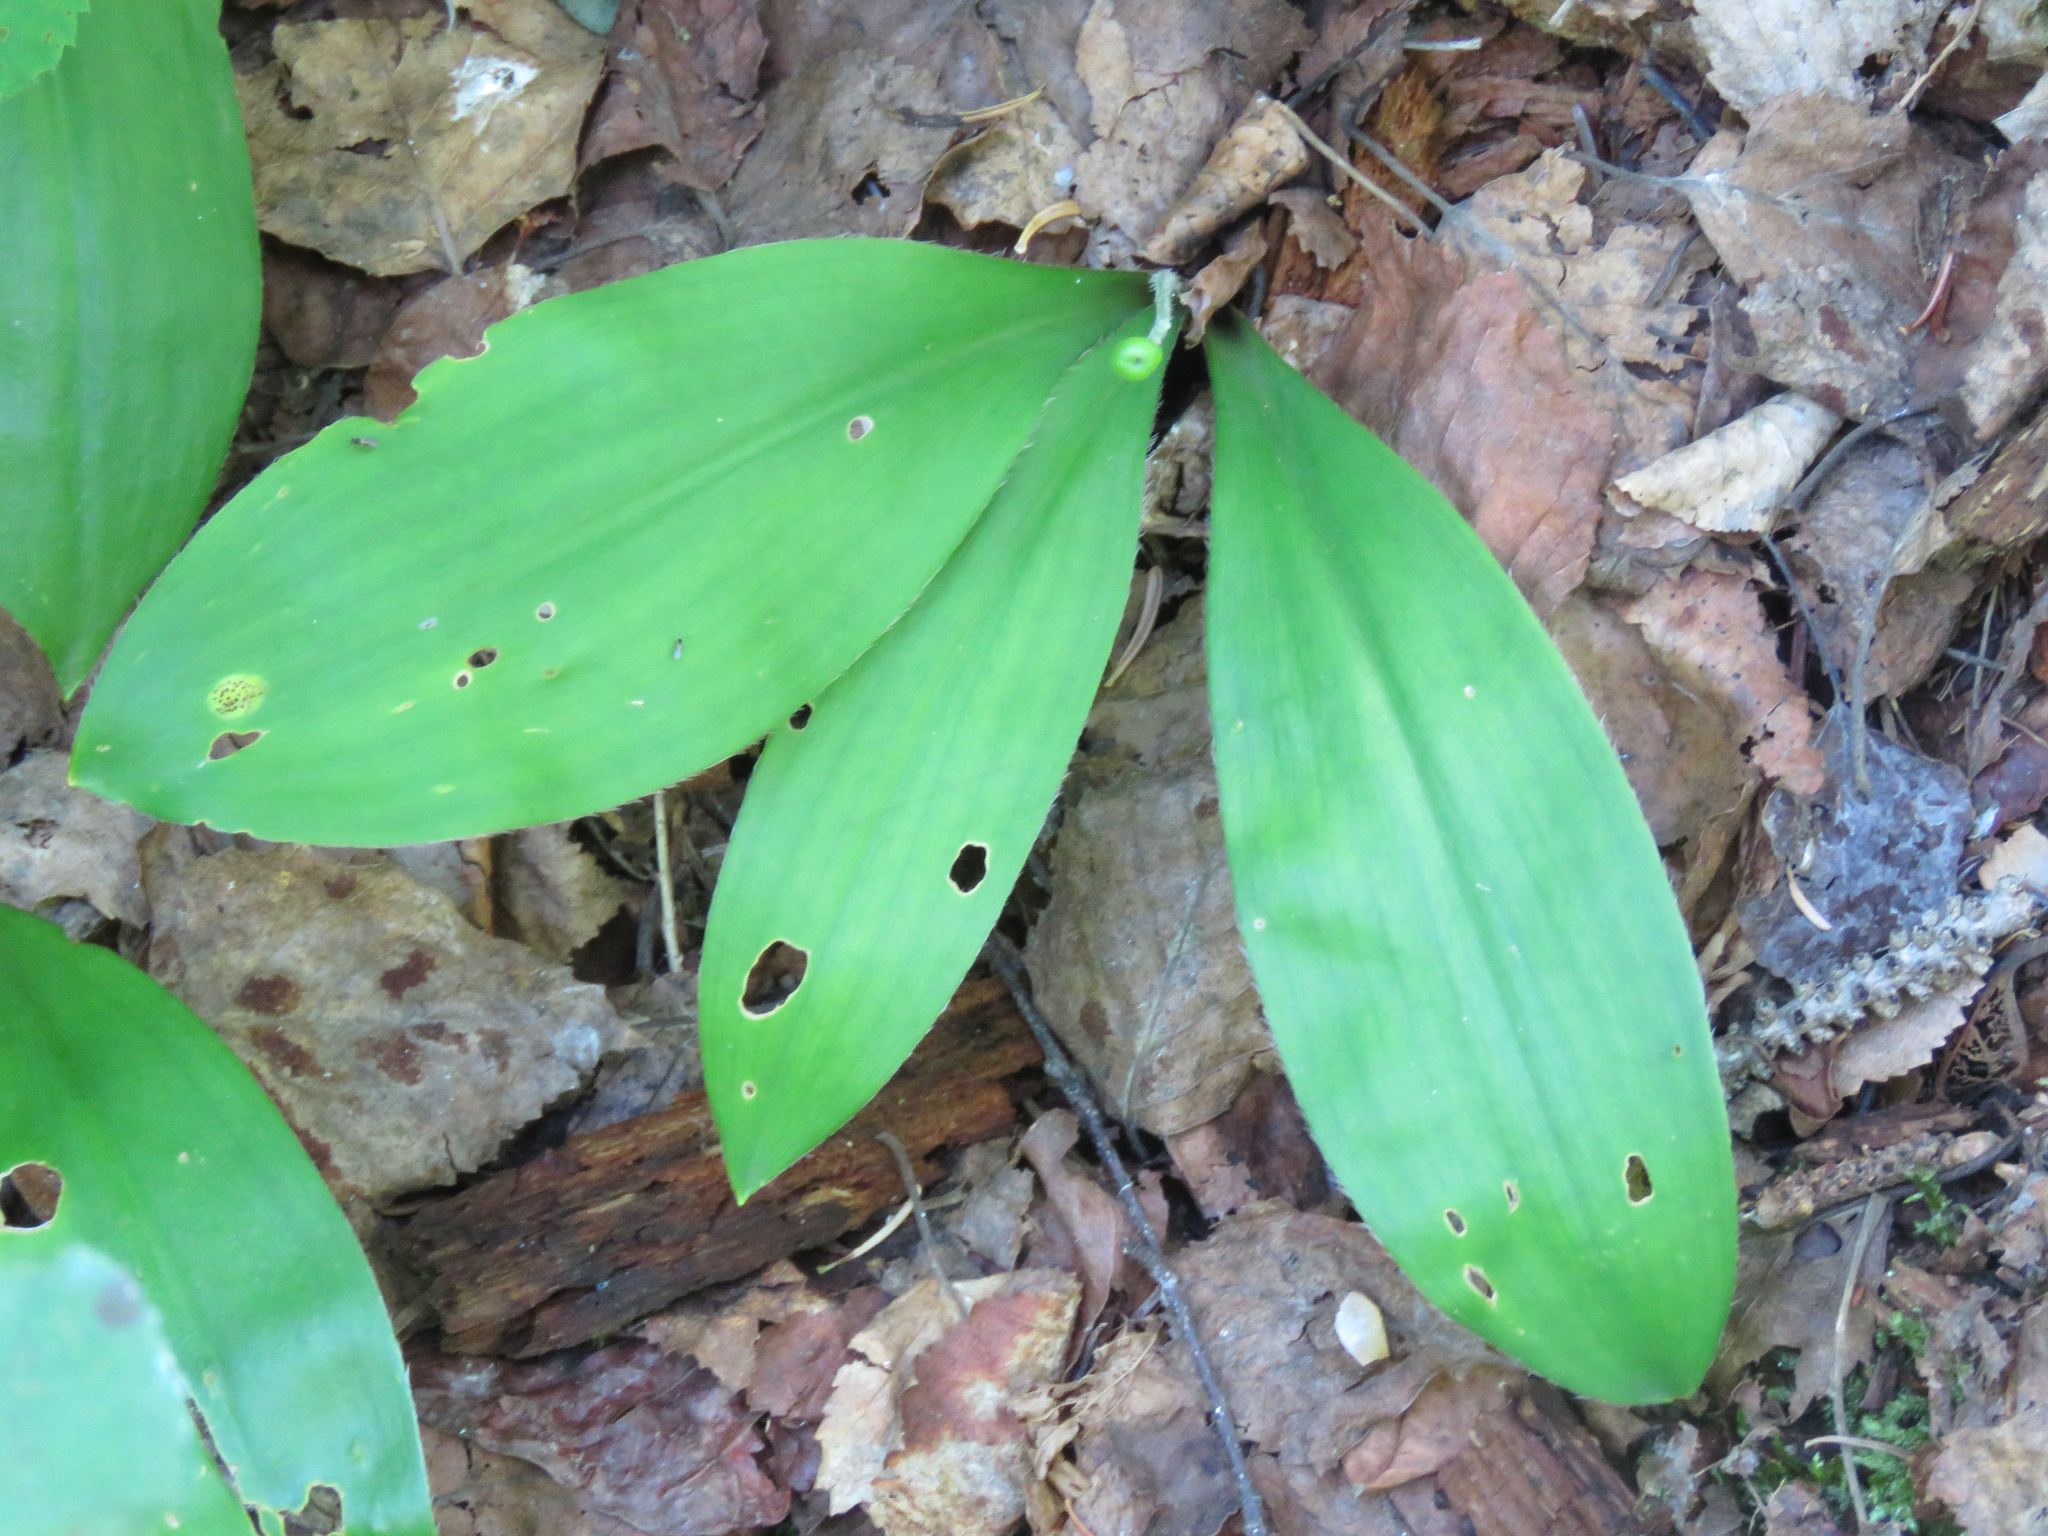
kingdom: Plantae
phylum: Tracheophyta
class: Liliopsida
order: Liliales
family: Liliaceae
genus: Clintonia
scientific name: Clintonia uniflora
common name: Queen's cup
